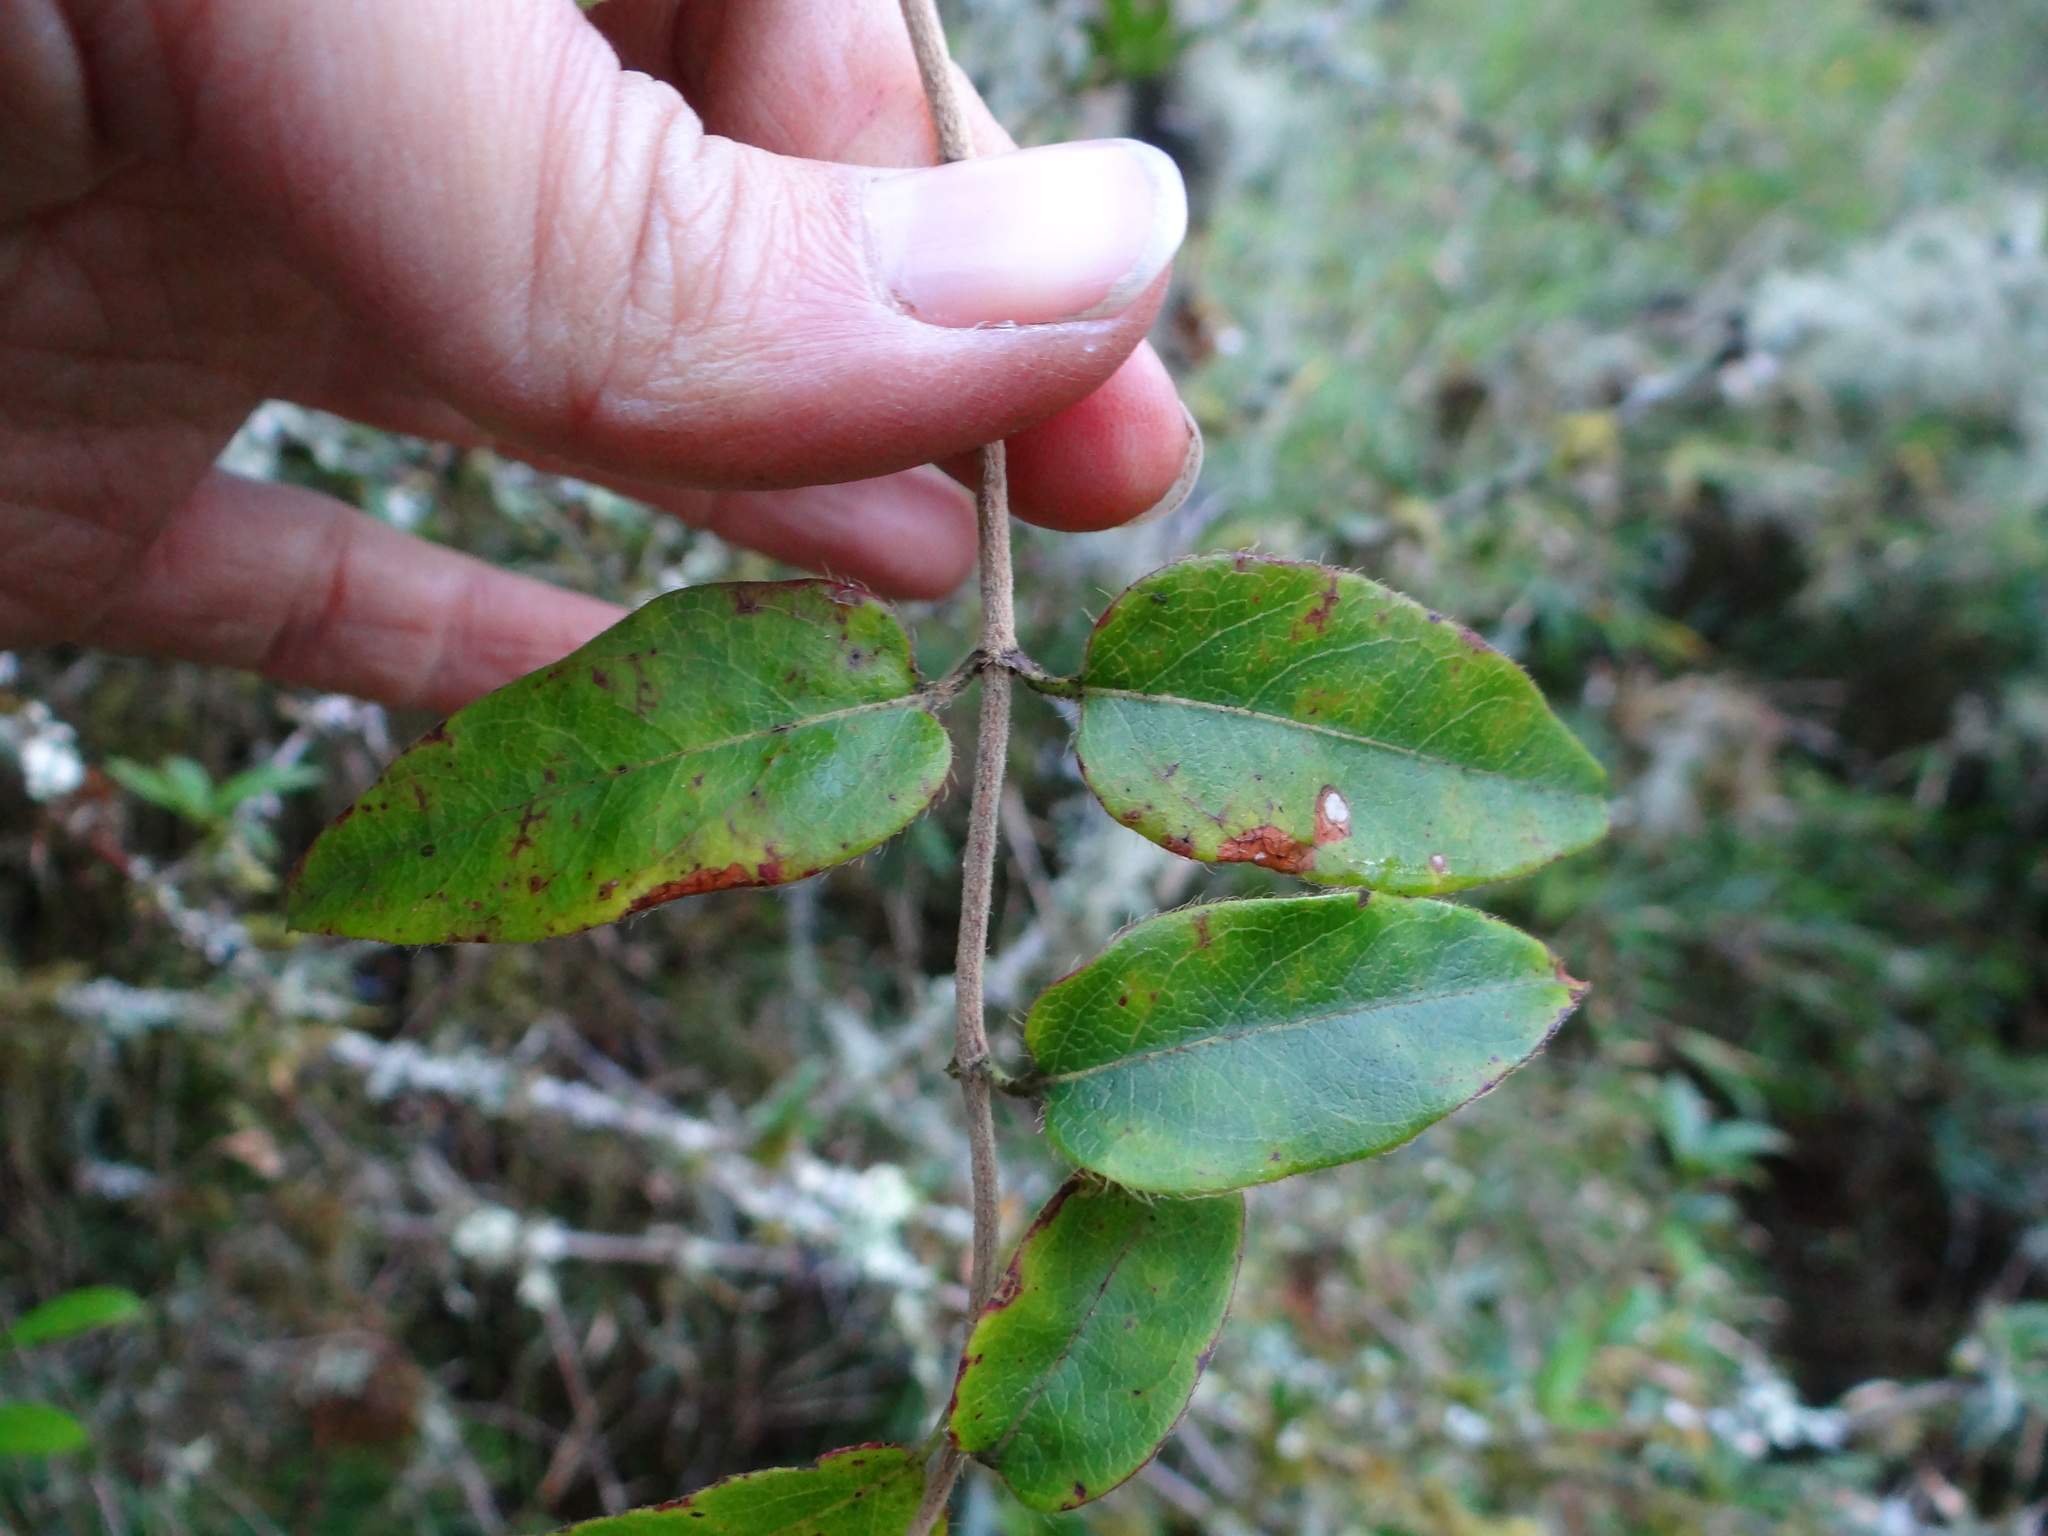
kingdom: Plantae
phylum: Tracheophyta
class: Magnoliopsida
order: Dipsacales
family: Caprifoliaceae
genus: Lonicera
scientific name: Lonicera acuminata
